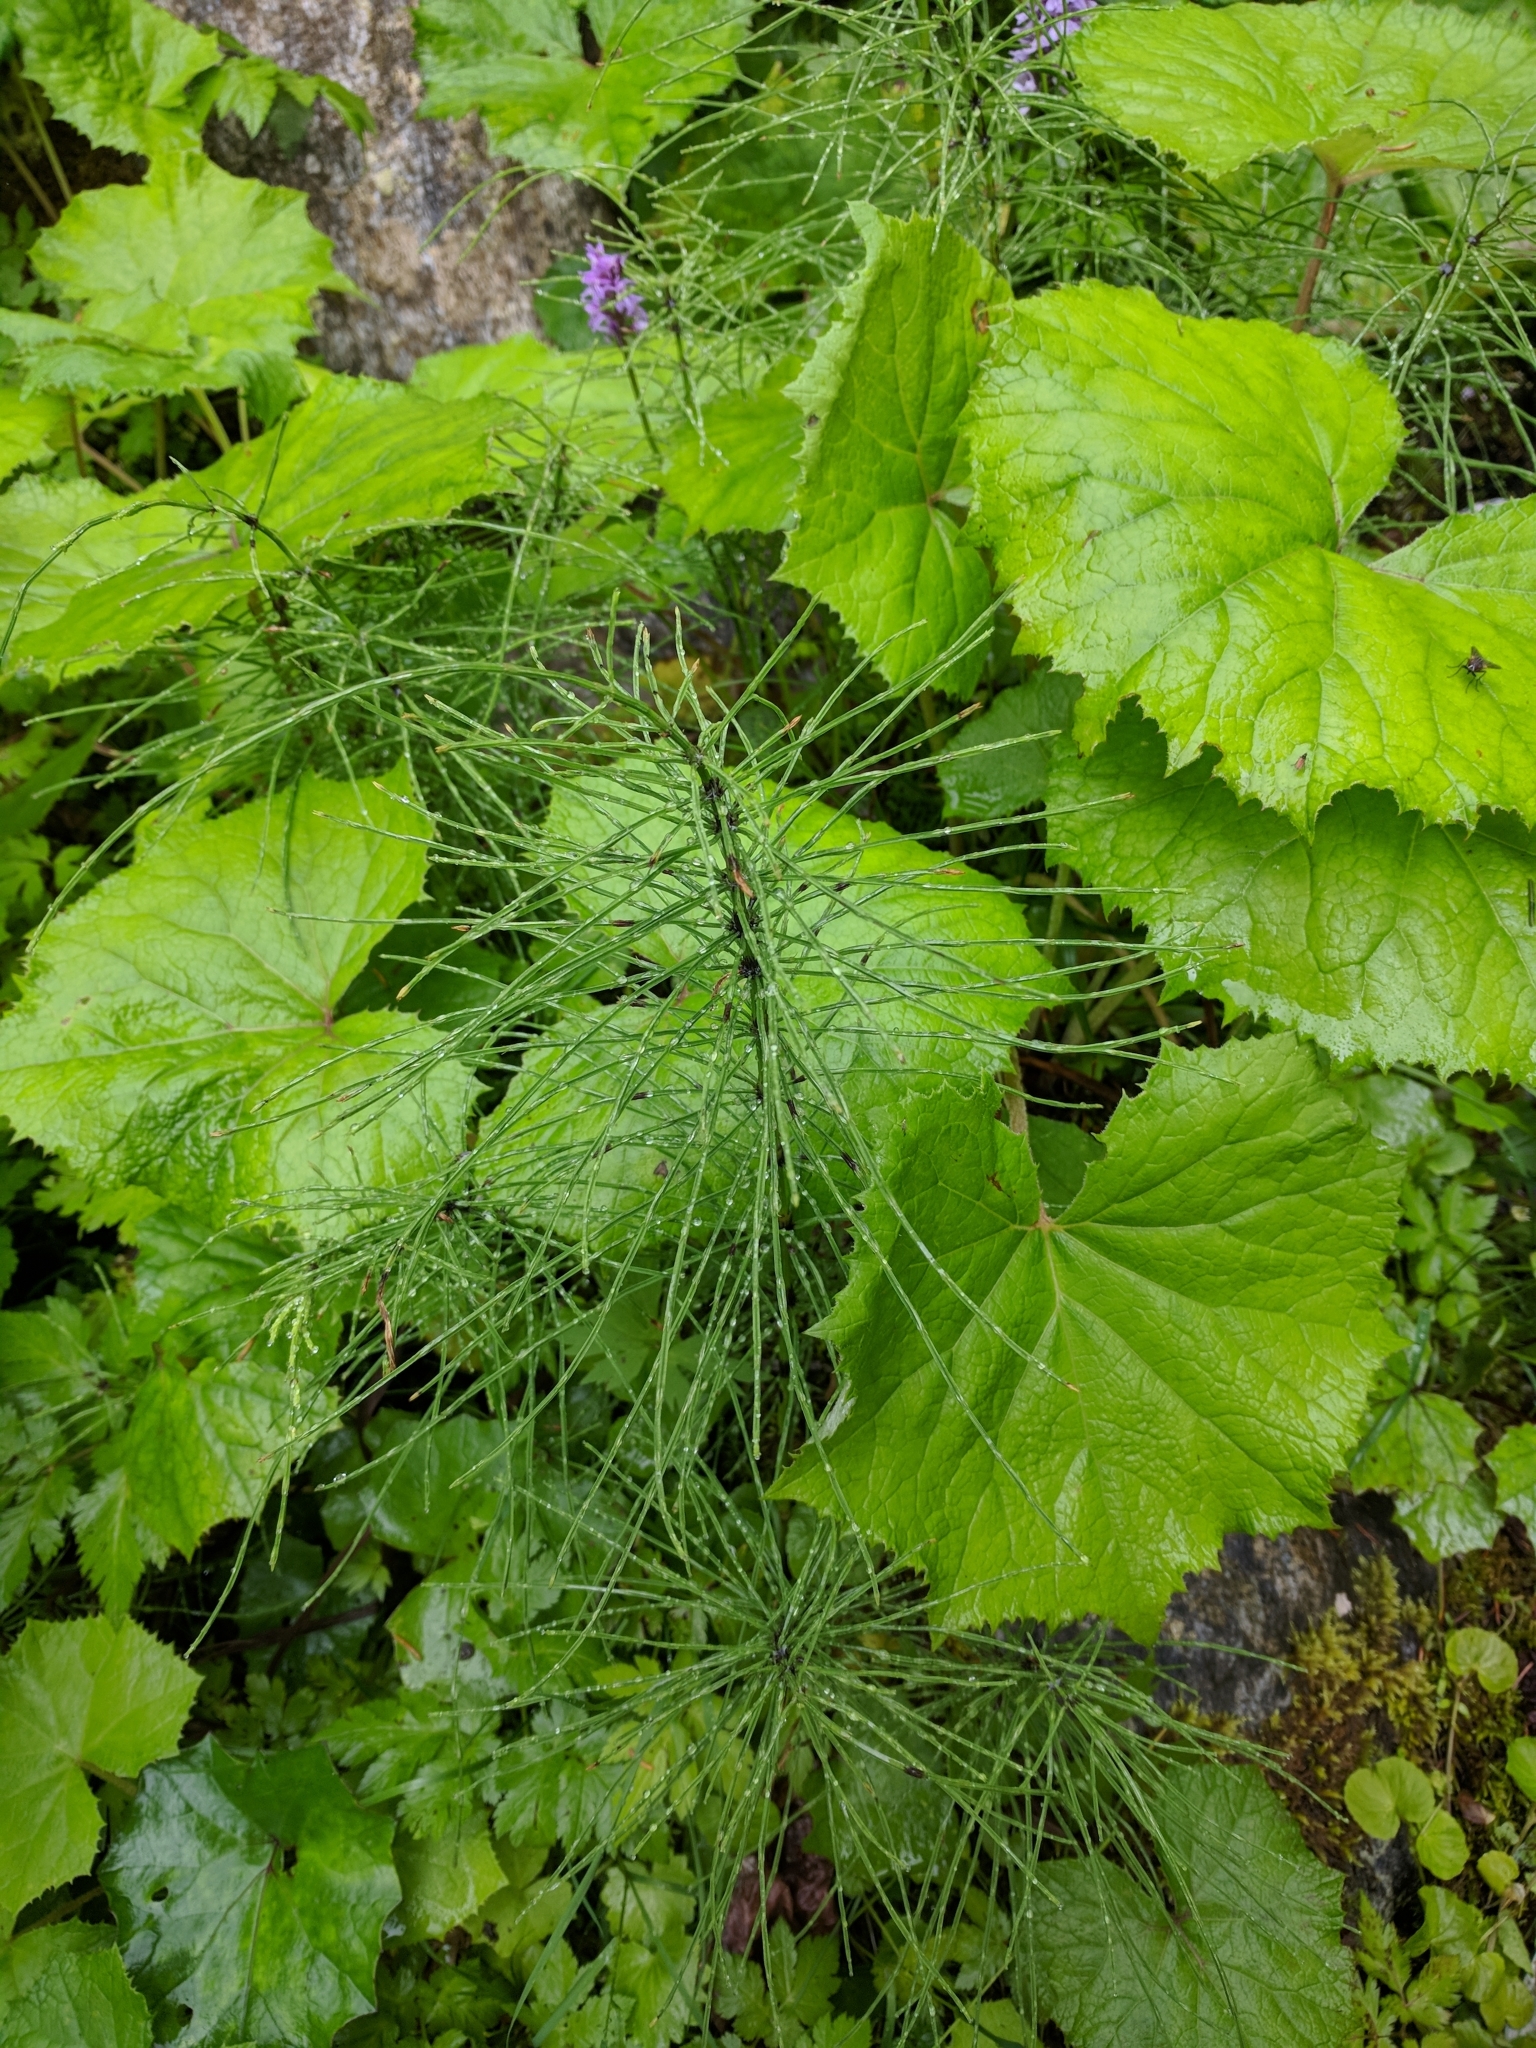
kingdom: Plantae
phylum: Tracheophyta
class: Polypodiopsida
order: Equisetales
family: Equisetaceae
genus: Equisetum
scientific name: Equisetum fluviatile
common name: Water horsetail
